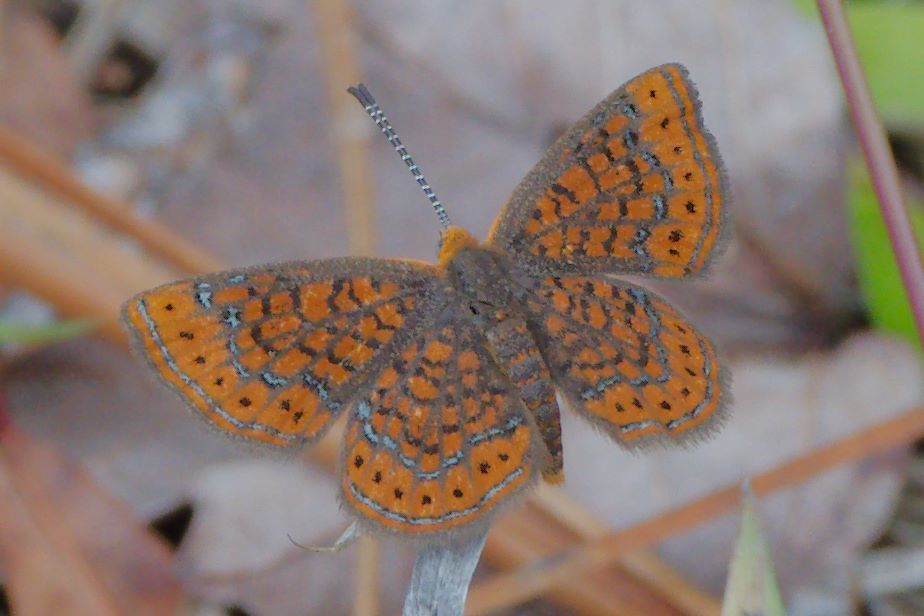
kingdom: Animalia
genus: Calephelis
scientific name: Calephelis virginiensis
